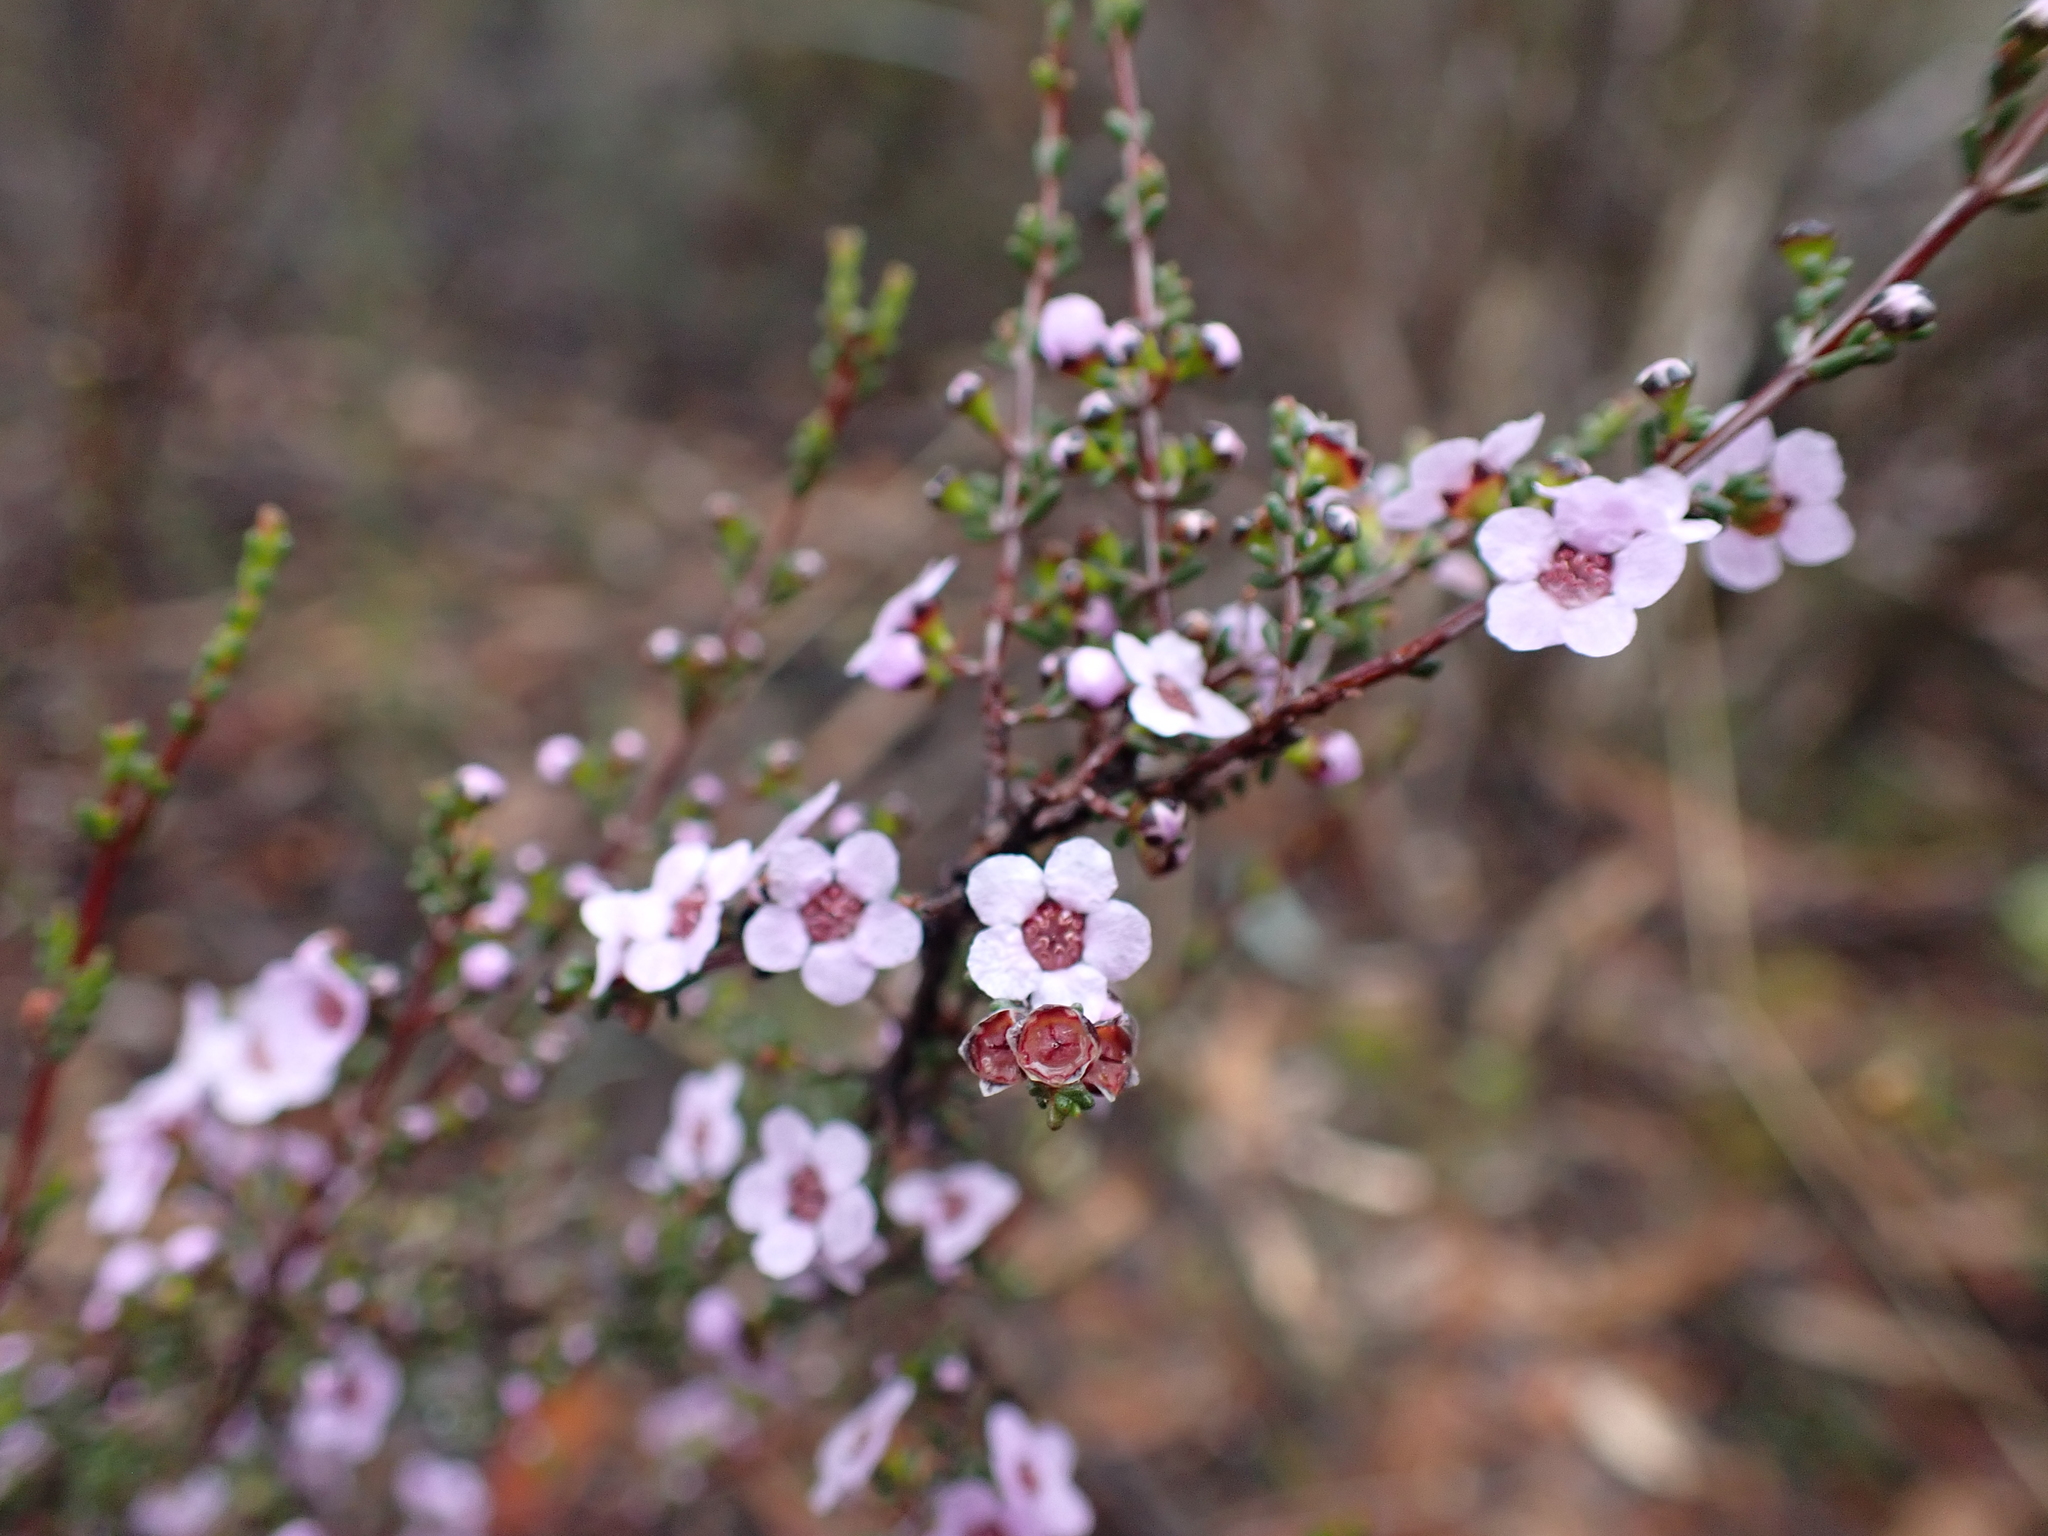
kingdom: Plantae
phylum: Tracheophyta
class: Magnoliopsida
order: Myrtales
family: Myrtaceae
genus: Euryomyrtus
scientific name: Euryomyrtus ramosissima
